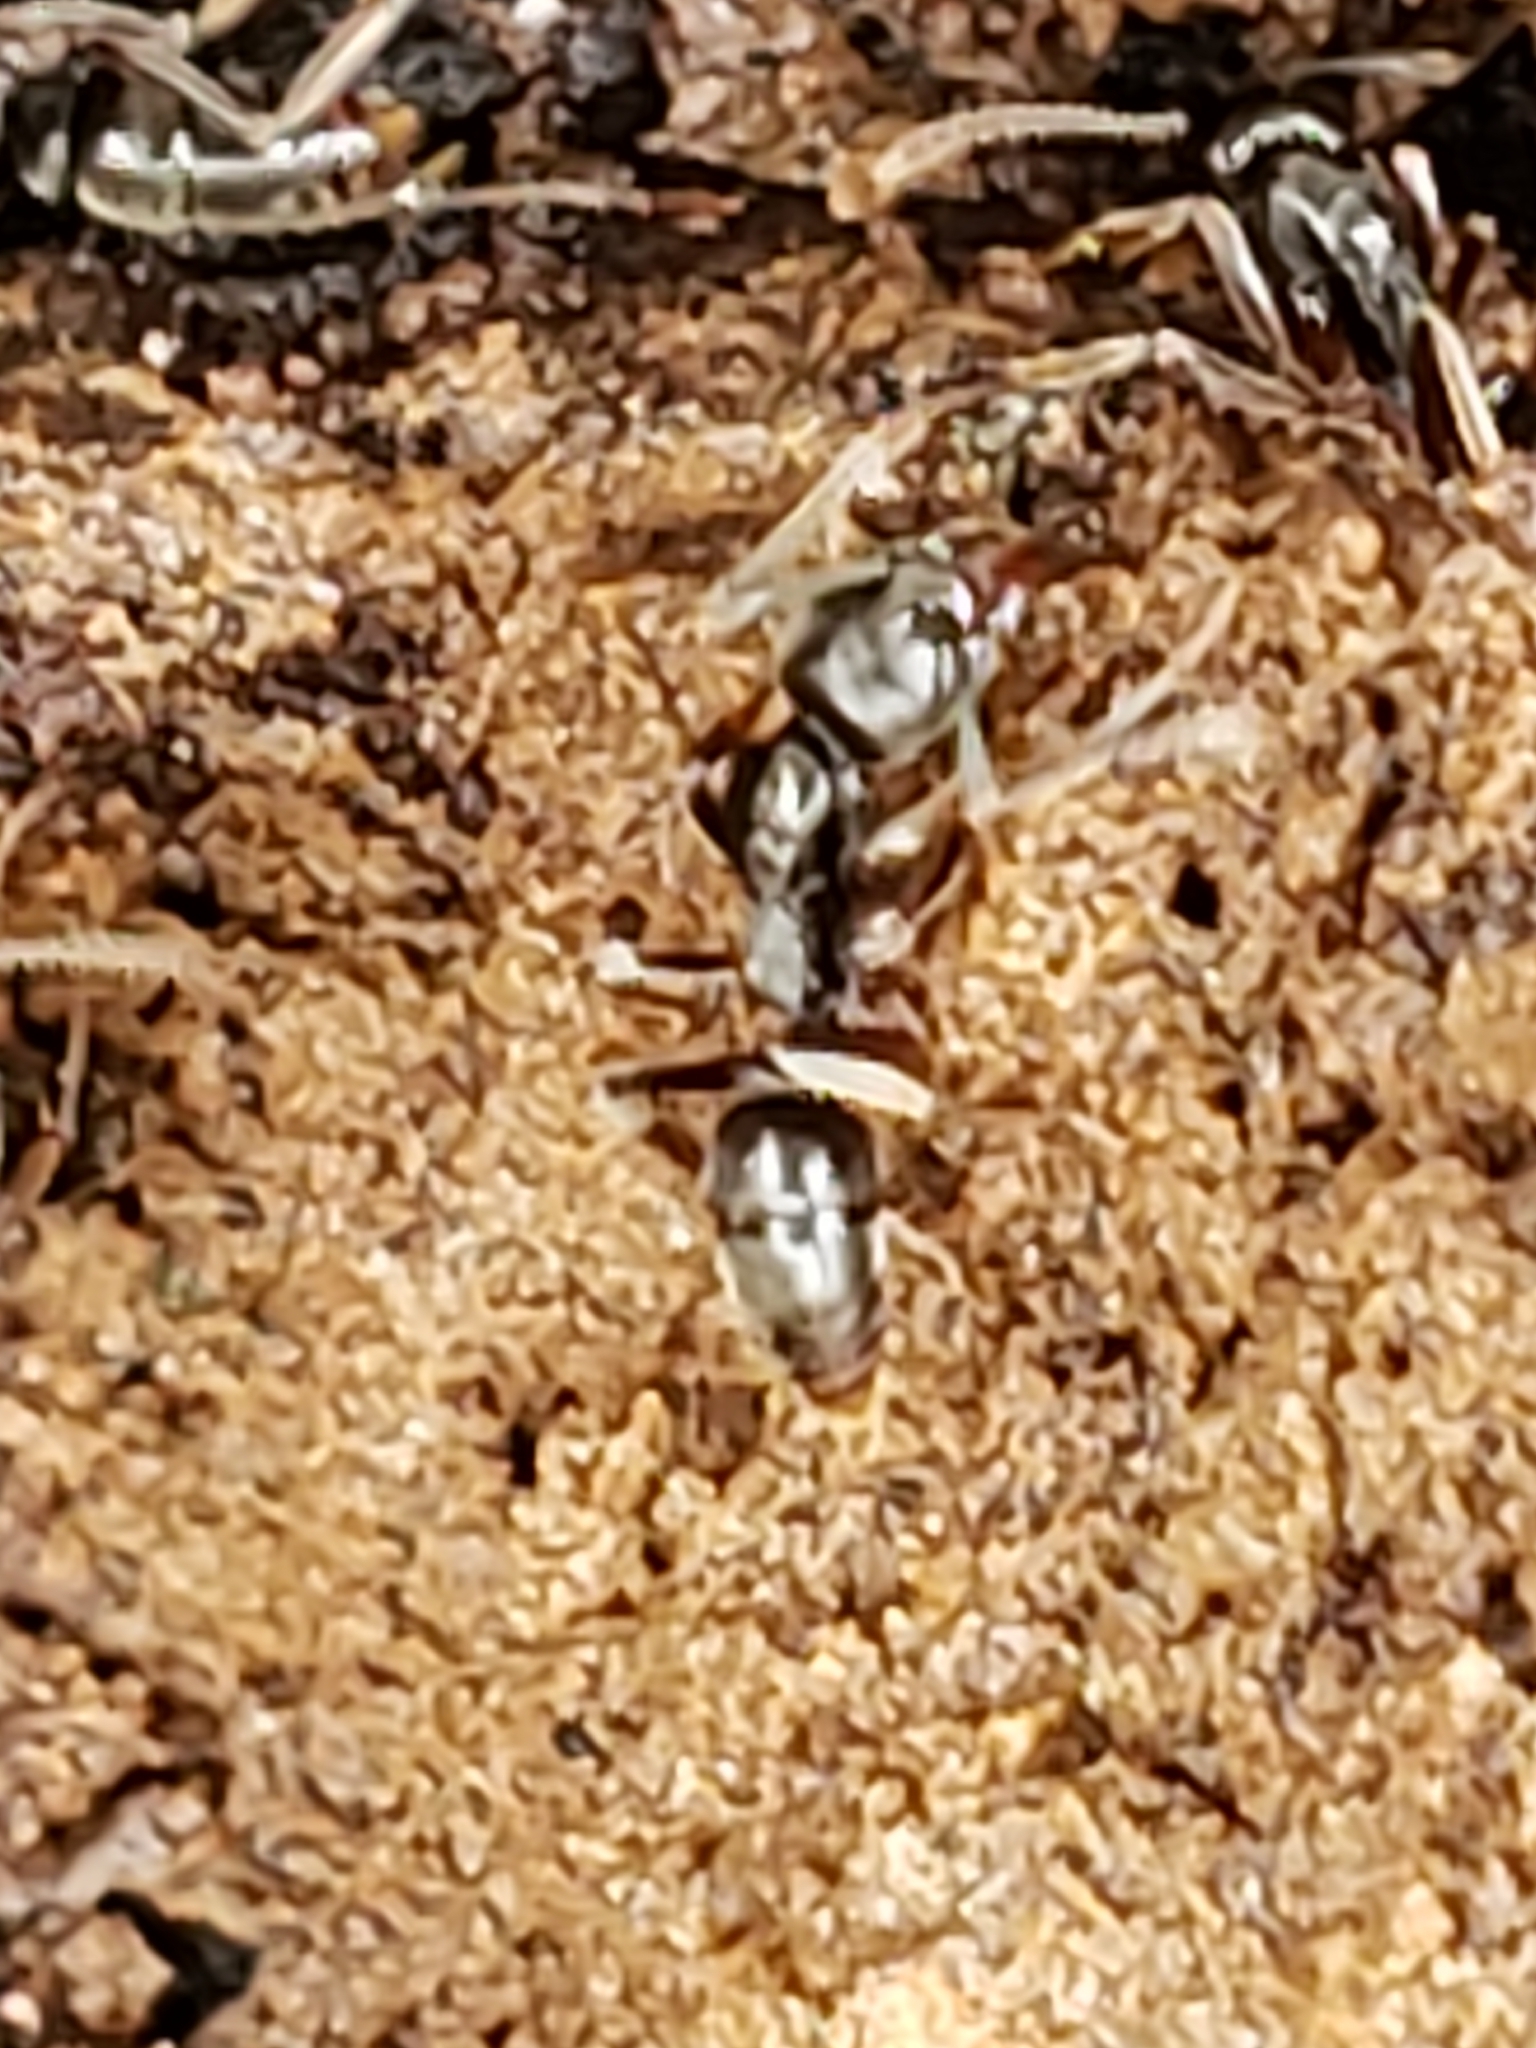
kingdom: Animalia
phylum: Arthropoda
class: Insecta
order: Hymenoptera
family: Formicidae
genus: Pachycondyla
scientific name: Pachycondyla chinensis
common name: Asian needle ant
